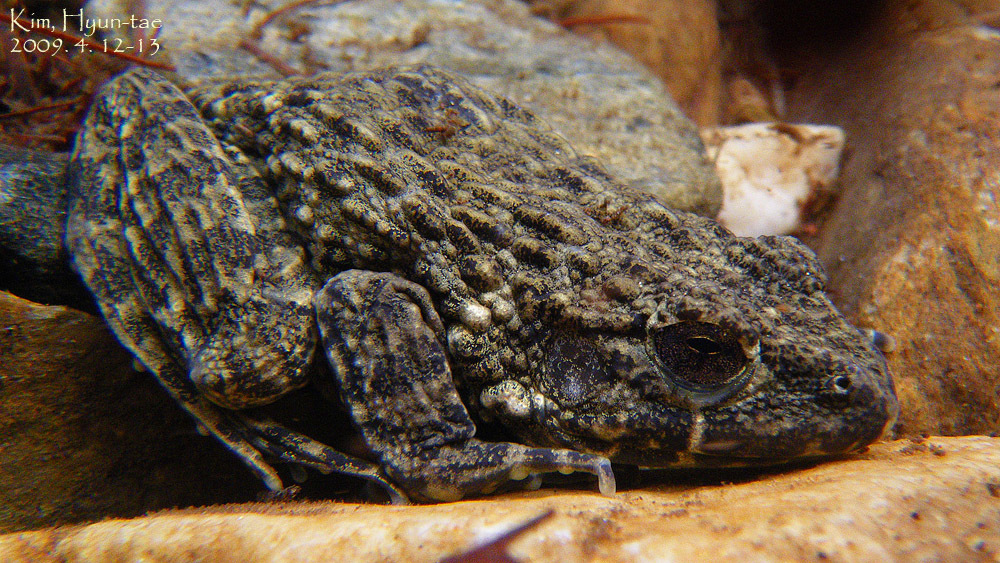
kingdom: Animalia
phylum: Chordata
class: Amphibia
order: Anura
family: Ranidae
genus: Glandirana
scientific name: Glandirana emeljanovi
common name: Northeast china rough-skinned frog
